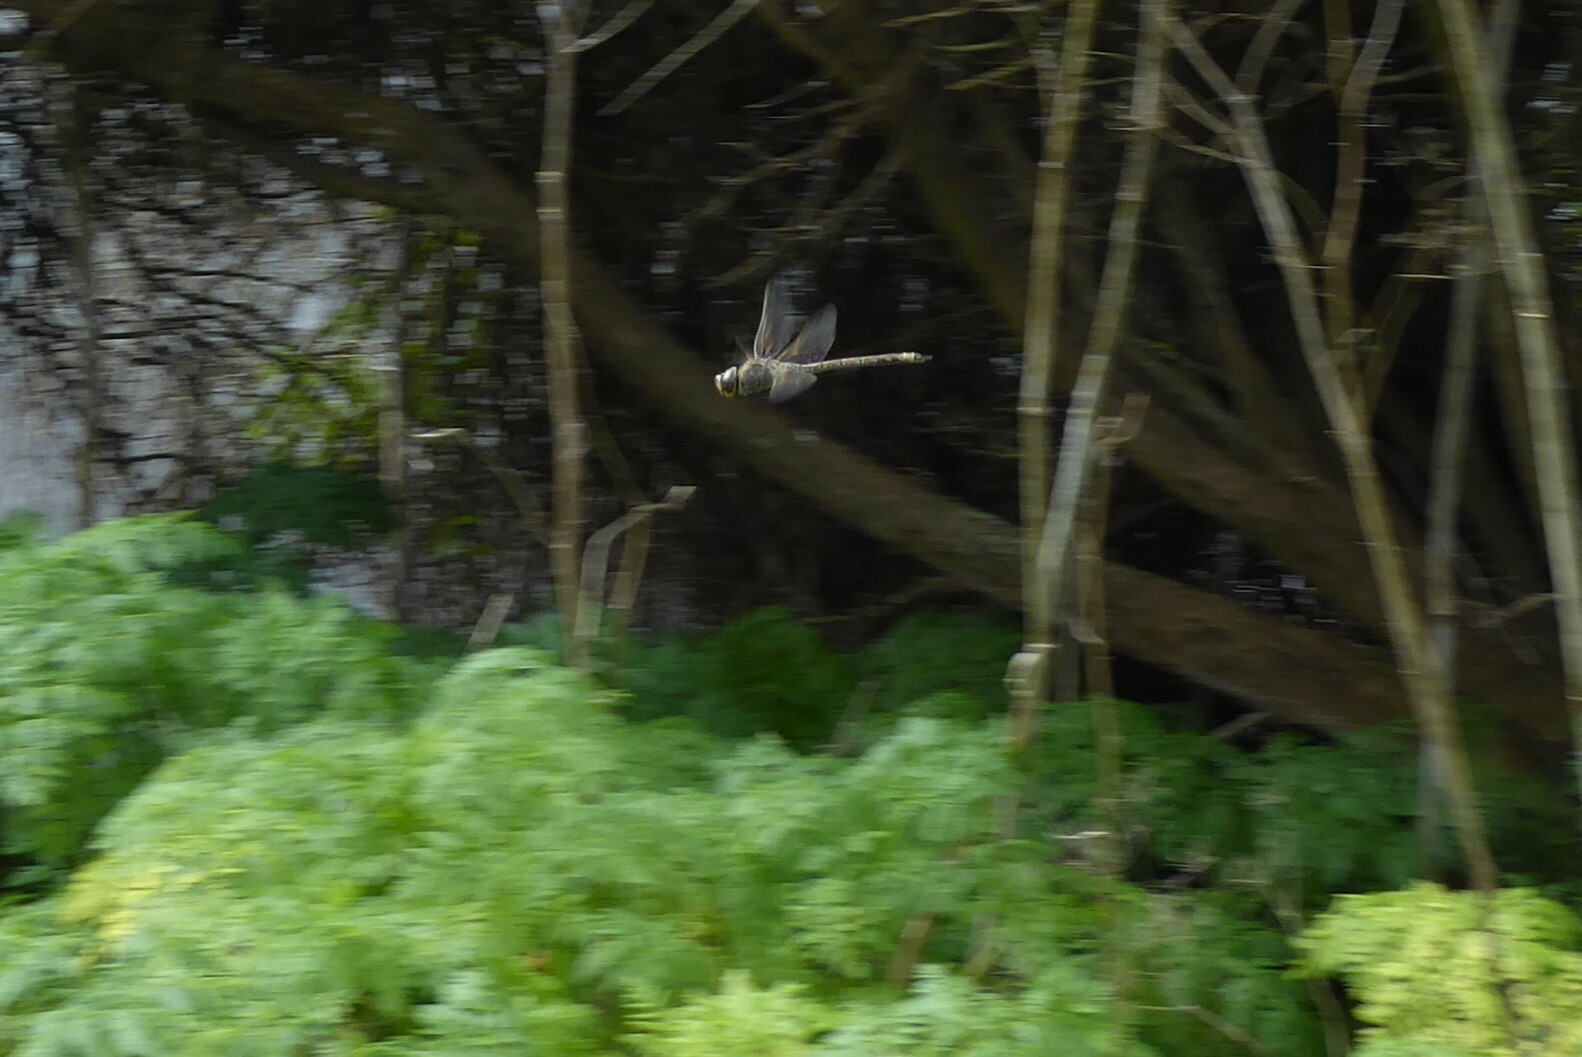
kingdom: Animalia
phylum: Arthropoda
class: Insecta
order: Odonata
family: Aeshnidae
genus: Anax
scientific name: Anax papuensis
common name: Australian emperor
